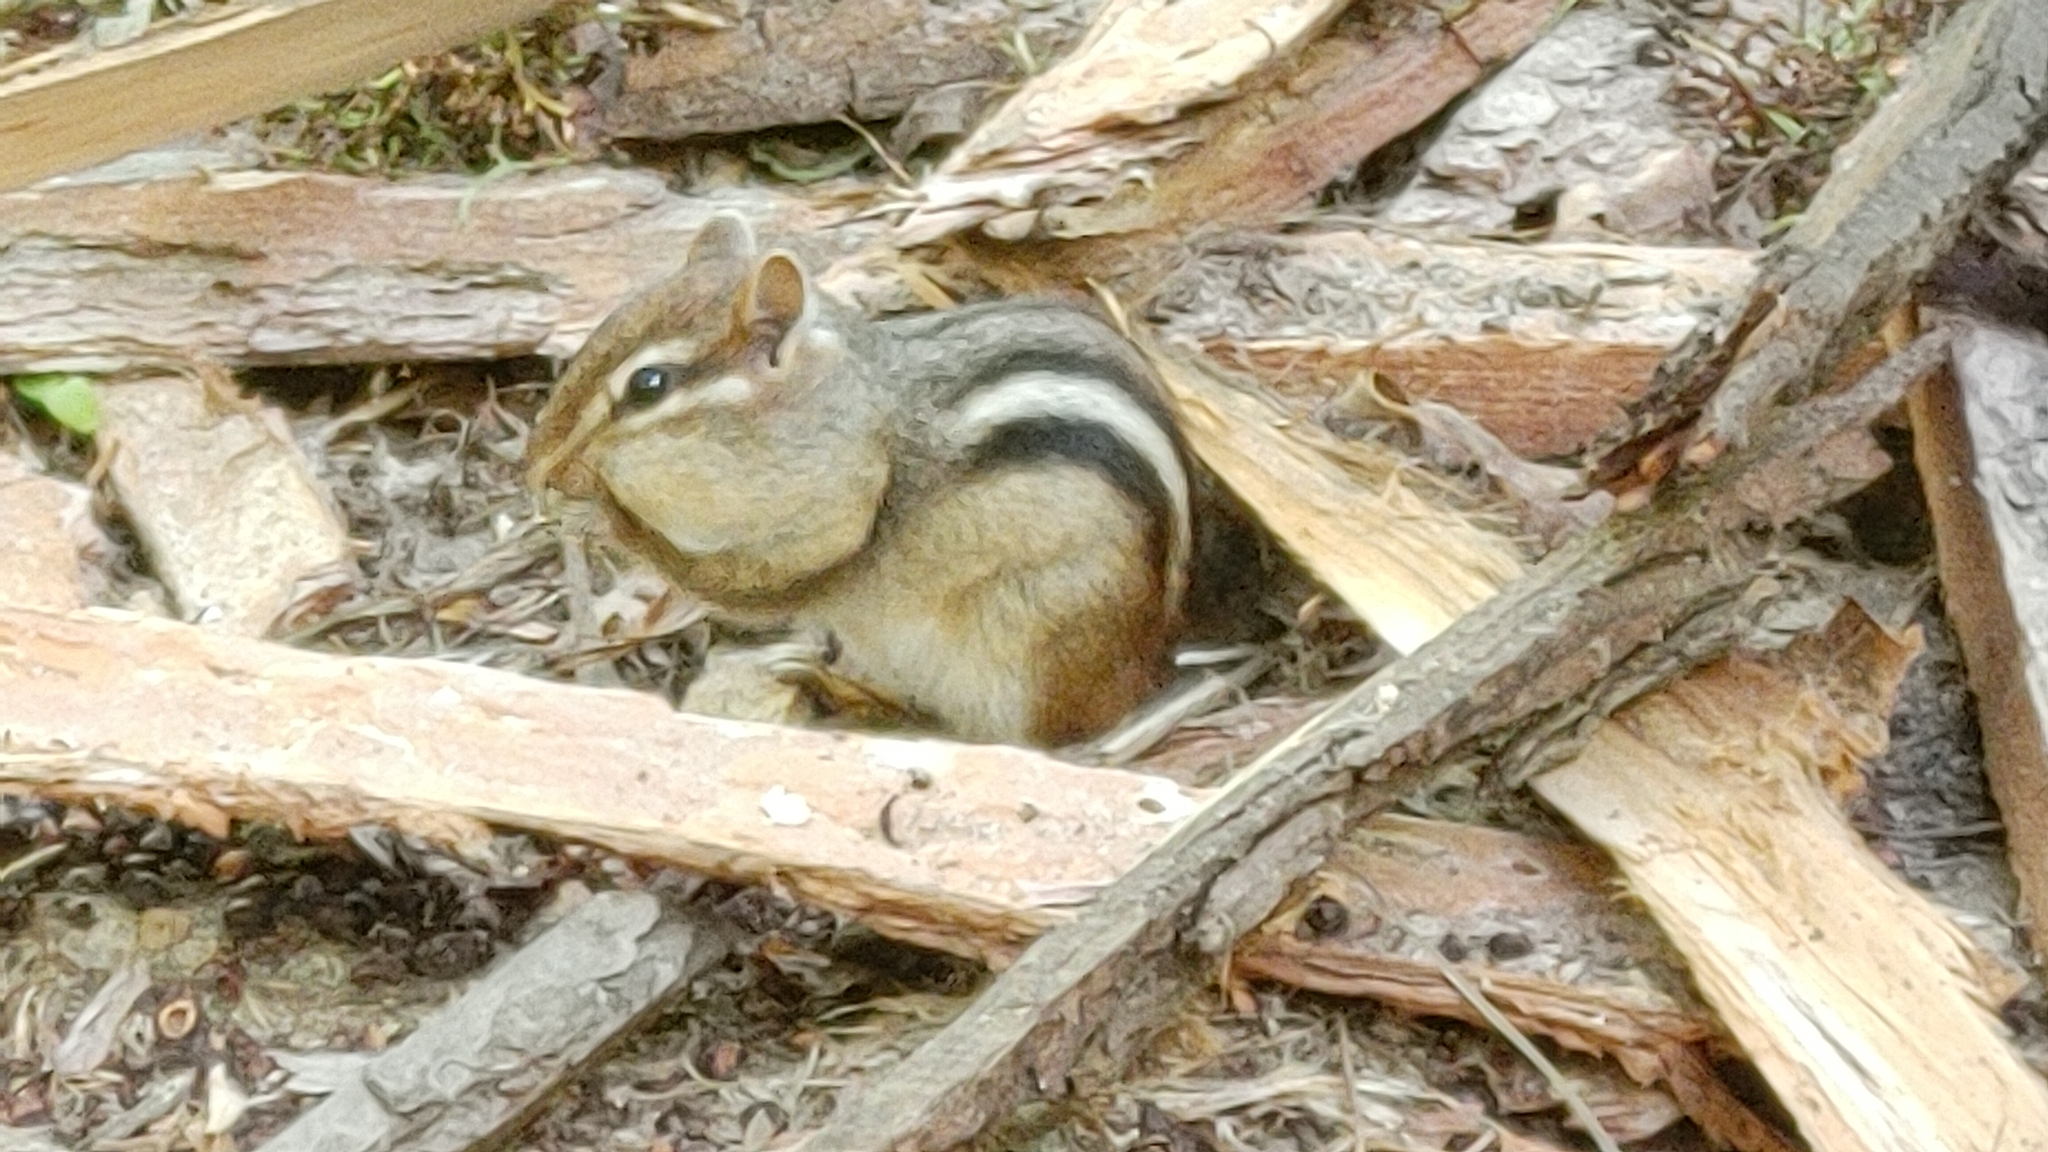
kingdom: Animalia
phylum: Chordata
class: Mammalia
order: Rodentia
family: Sciuridae
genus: Tamias
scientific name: Tamias striatus
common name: Eastern chipmunk
